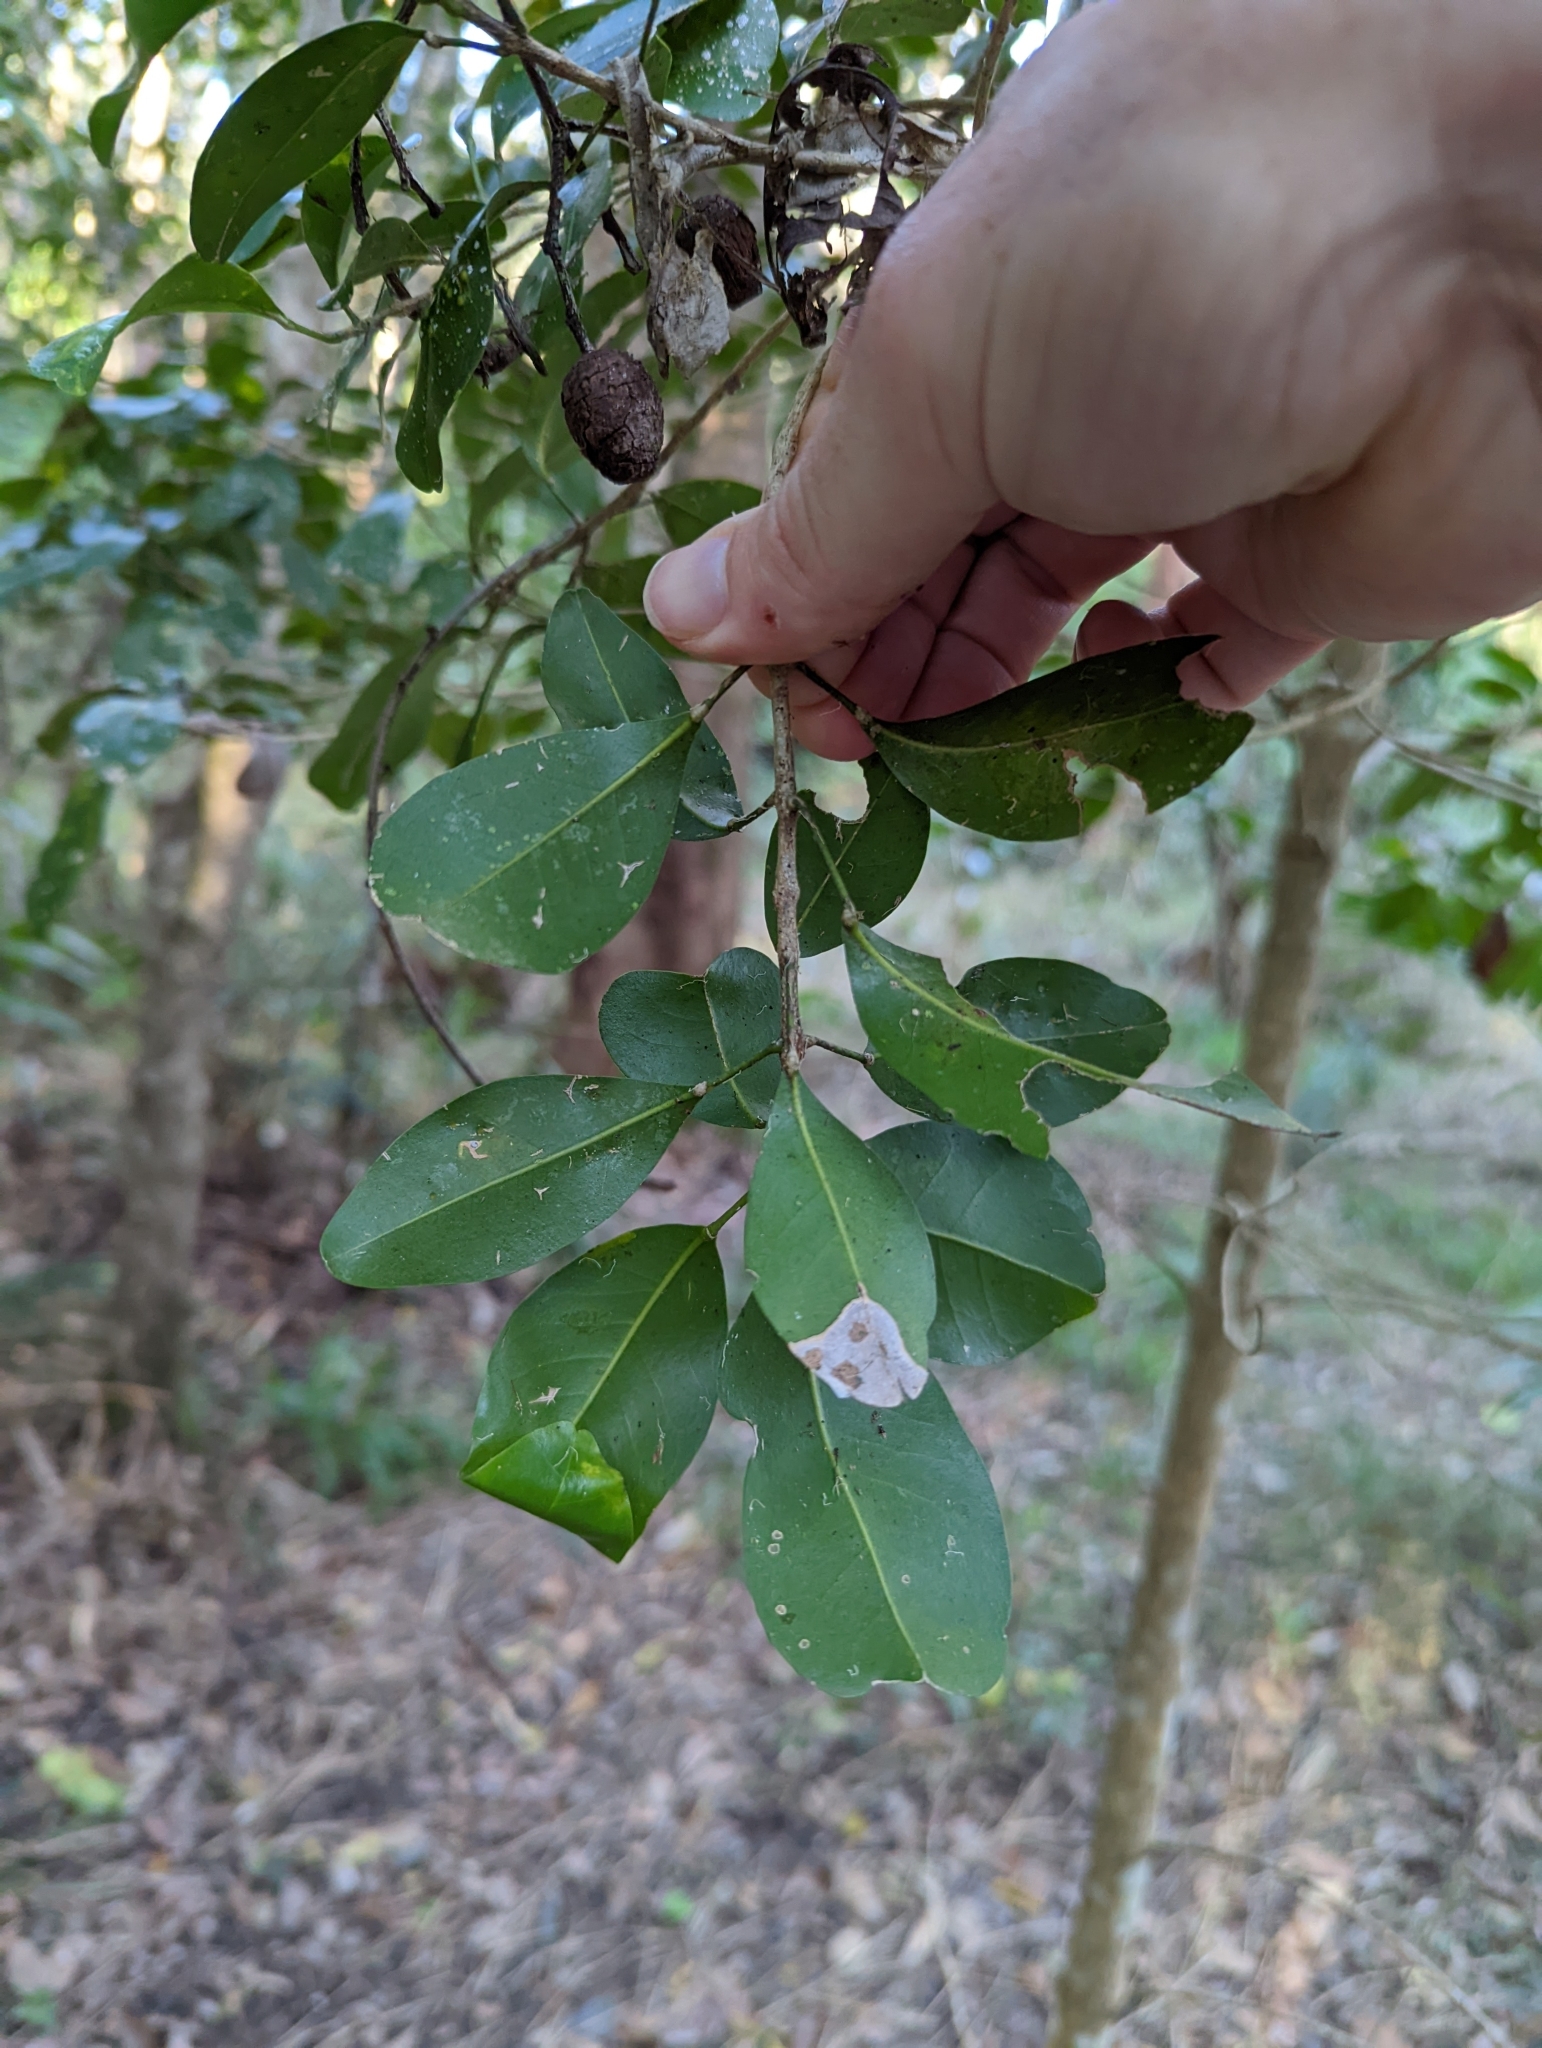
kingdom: Plantae
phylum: Tracheophyta
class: Magnoliopsida
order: Sapindales
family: Rutaceae
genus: Acronychia
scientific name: Acronychia laevis
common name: Hard aspen
